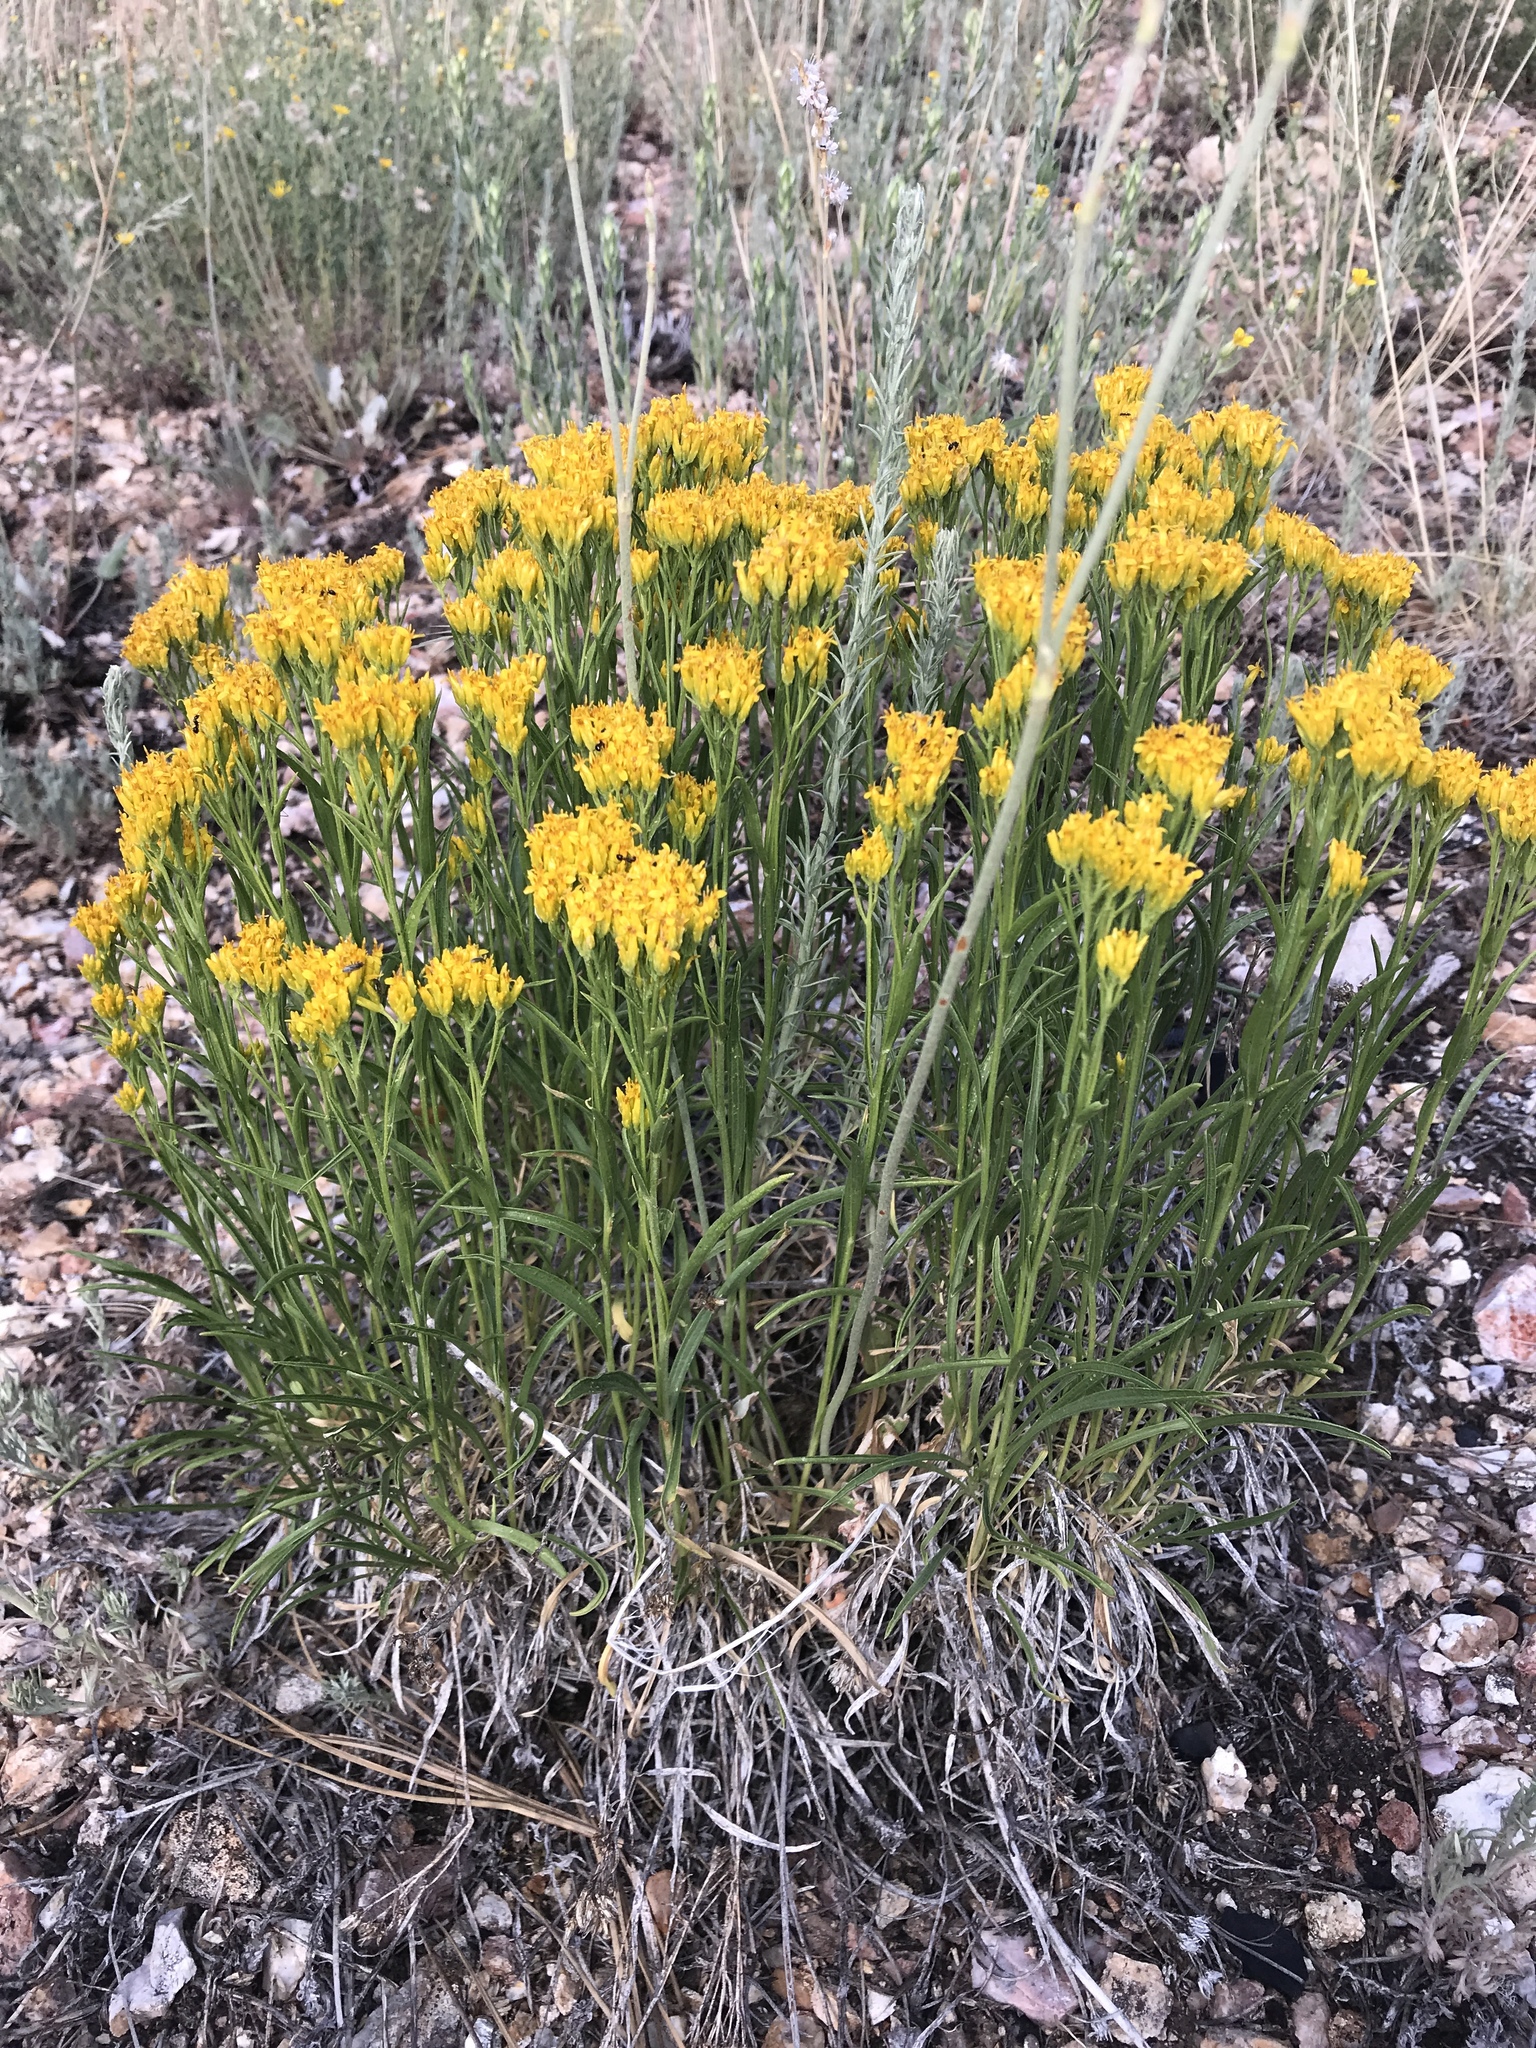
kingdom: Plantae
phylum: Tracheophyta
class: Magnoliopsida
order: Asterales
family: Asteraceae
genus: Petradoria
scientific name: Petradoria pumila
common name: Rock-goldenrod
